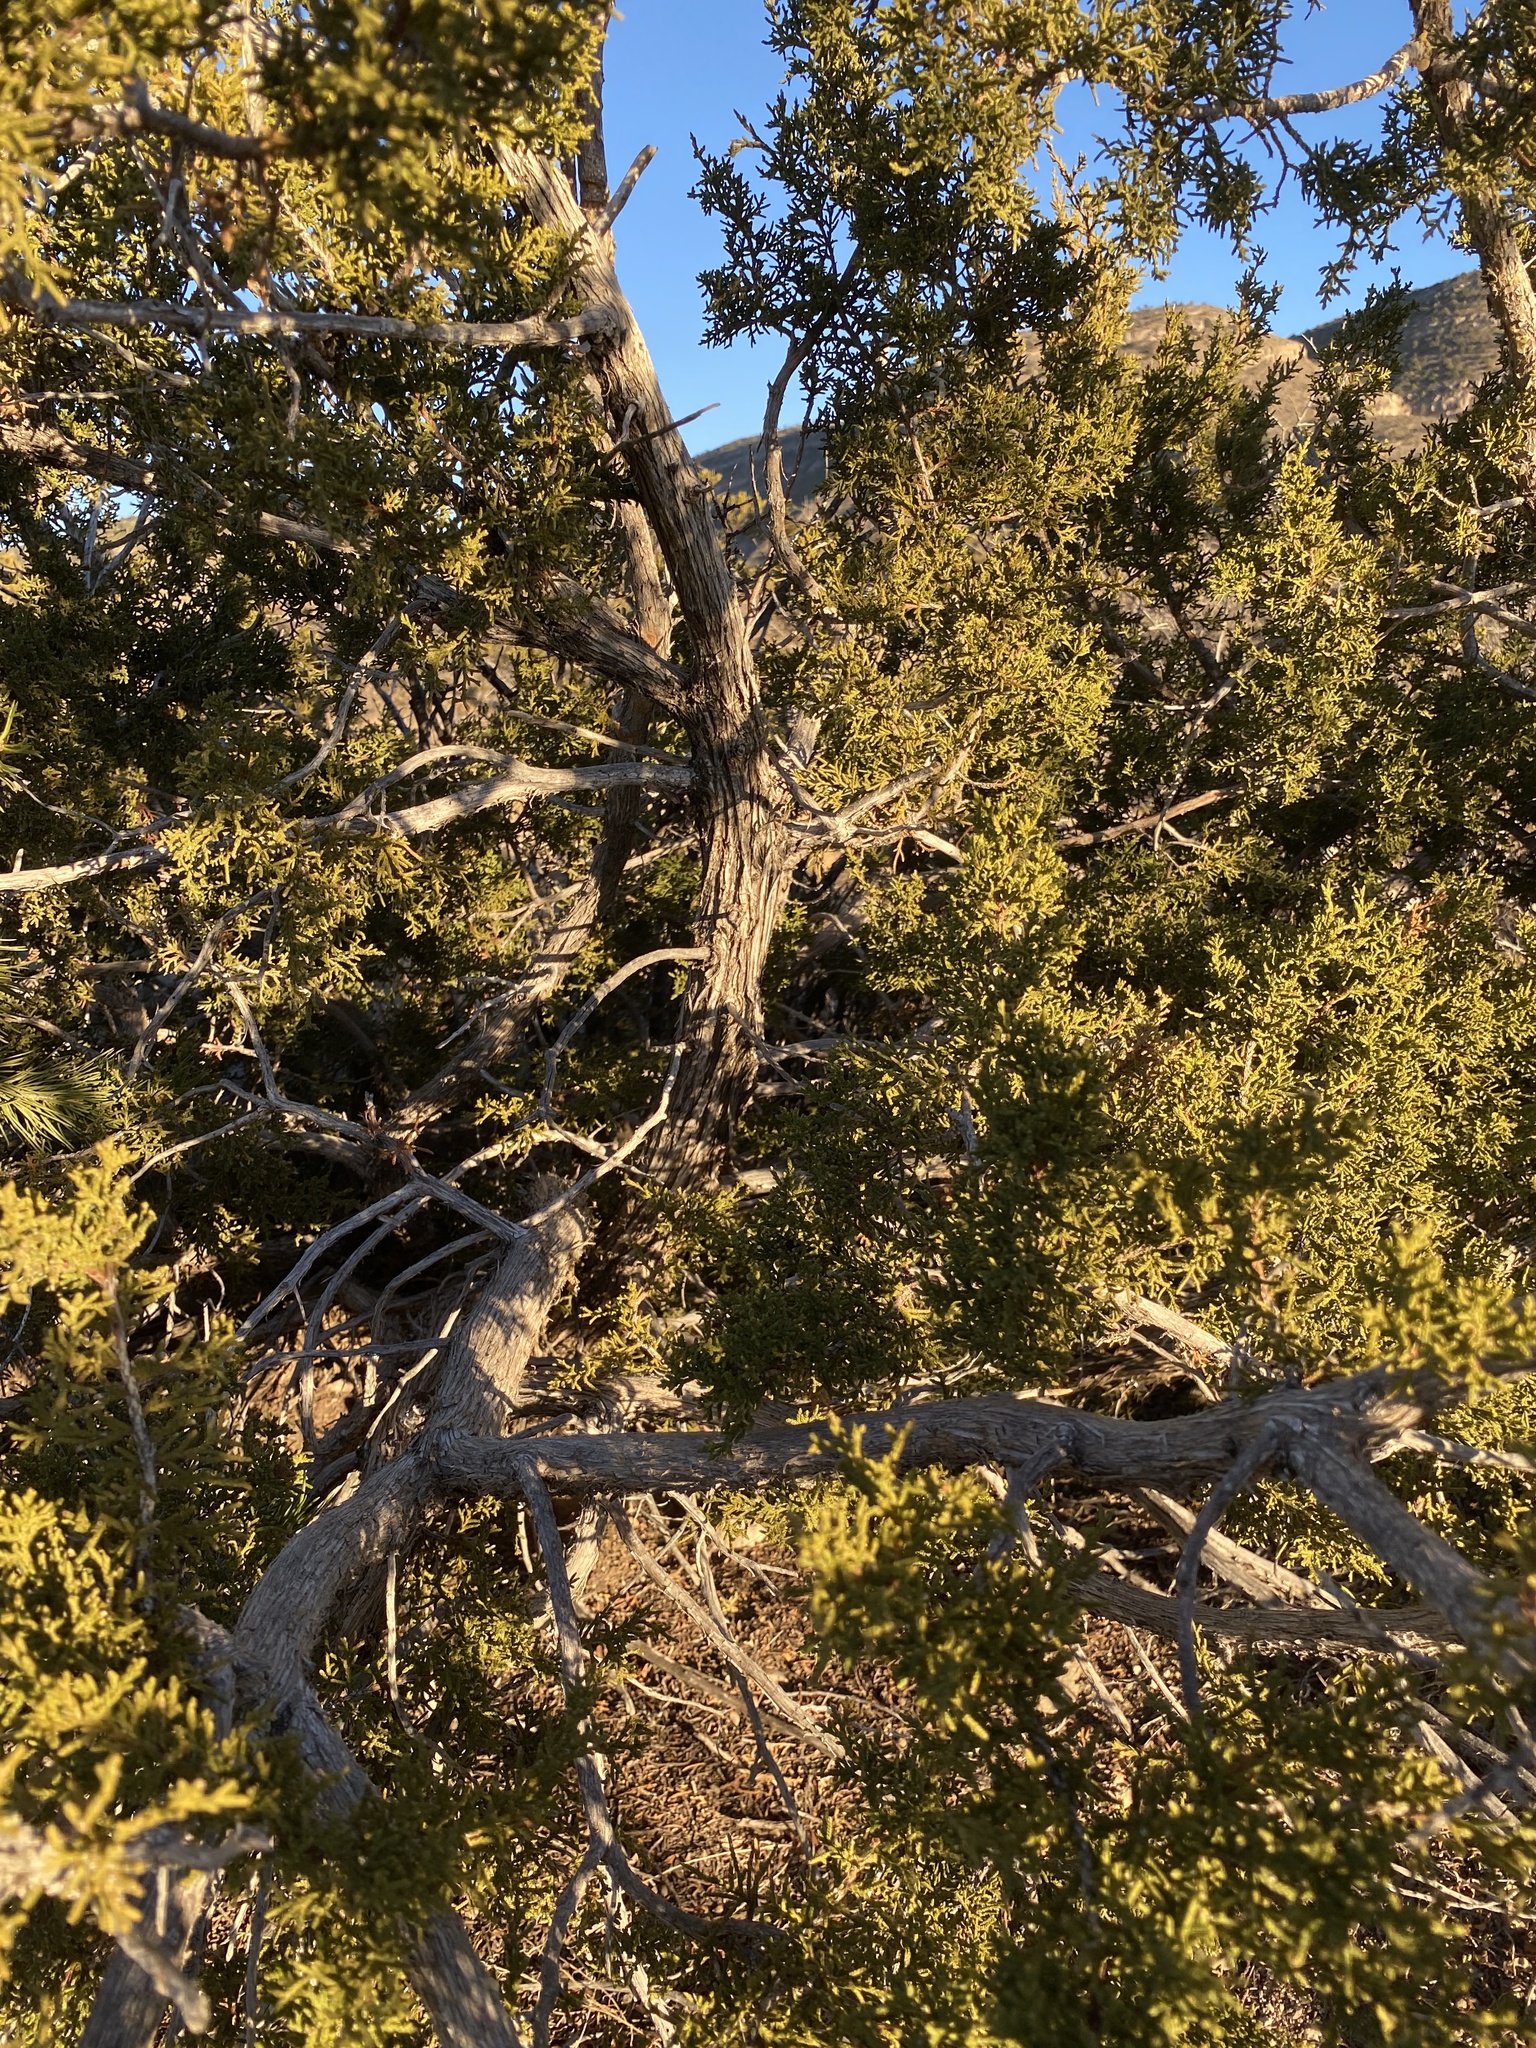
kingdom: Plantae
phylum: Tracheophyta
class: Pinopsida
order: Pinales
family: Cupressaceae
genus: Juniperus
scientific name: Juniperus monosperma
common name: One-seed juniper
